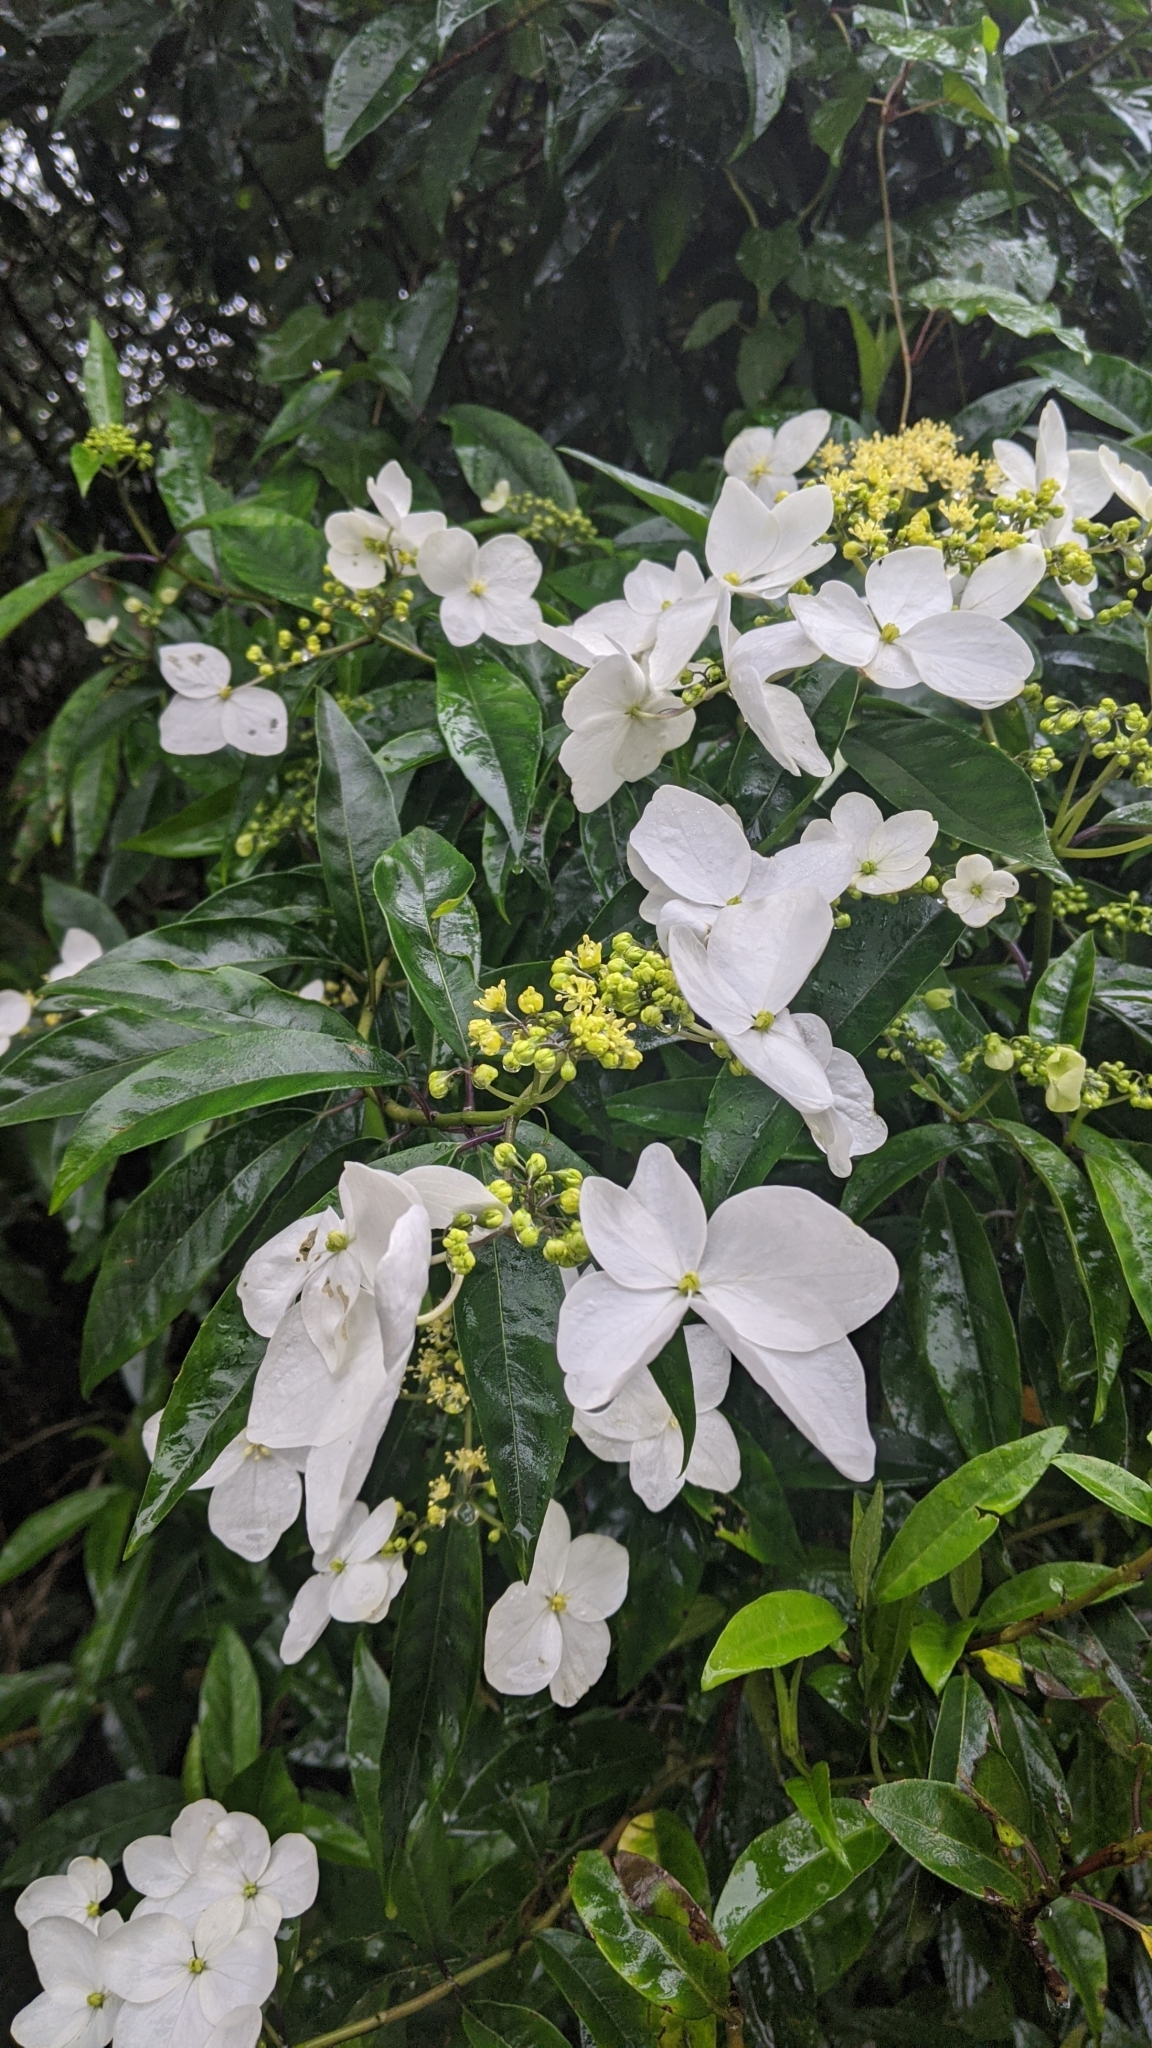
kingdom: Plantae
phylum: Tracheophyta
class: Magnoliopsida
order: Cornales
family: Hydrangeaceae
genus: Hydrangea
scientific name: Hydrangea chinensis
